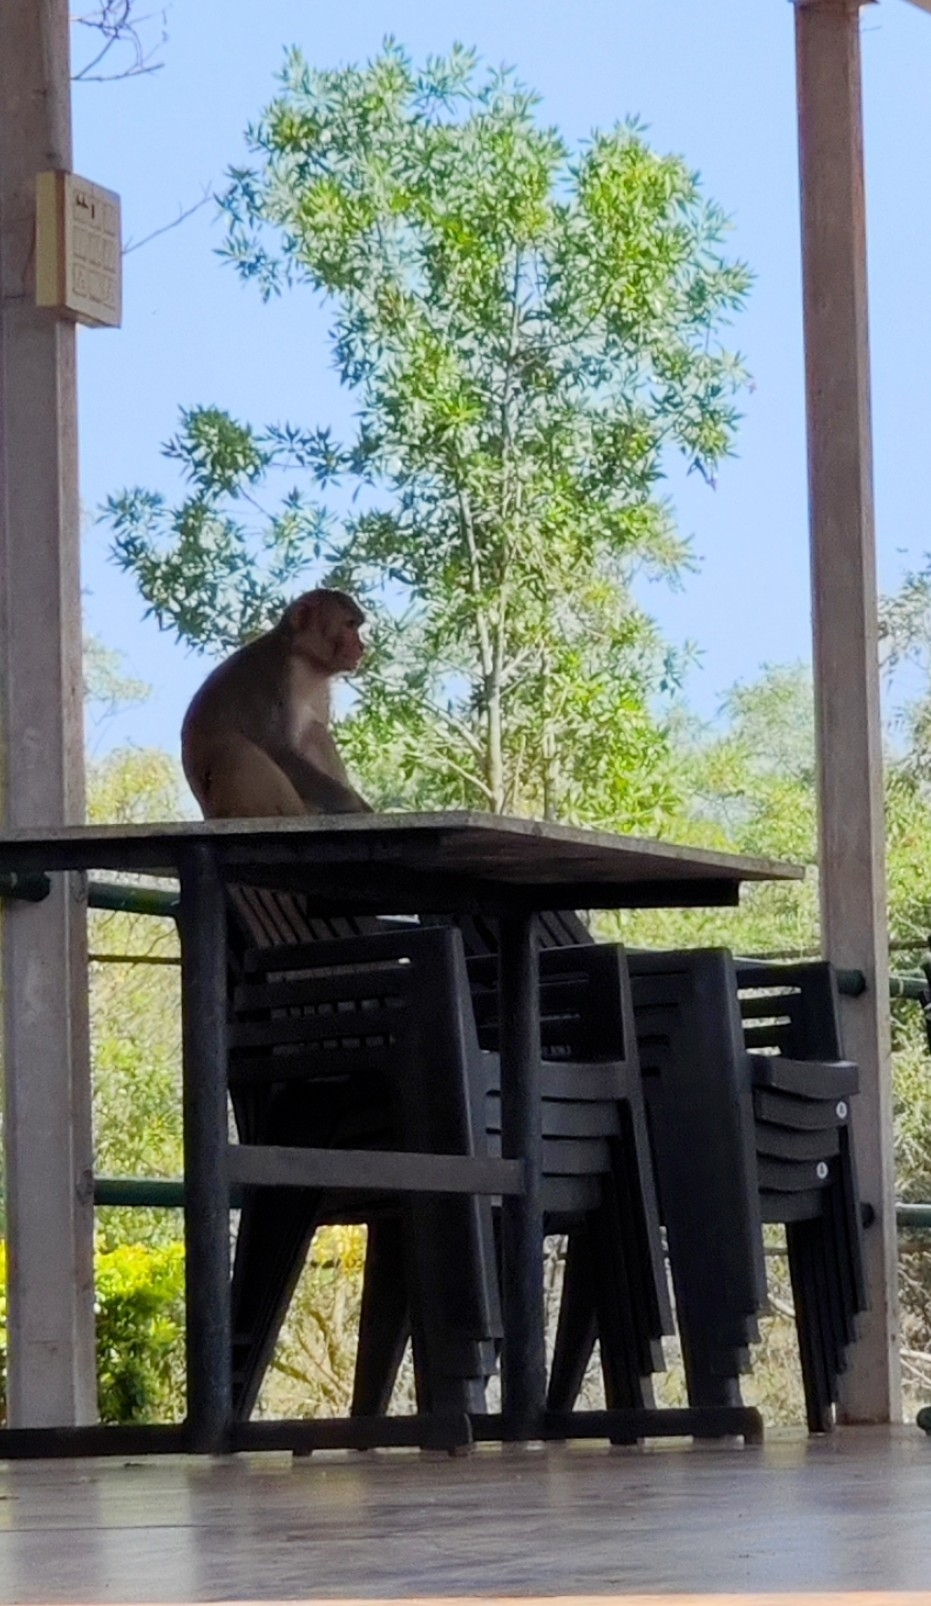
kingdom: Animalia
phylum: Chordata
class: Mammalia
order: Primates
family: Cercopithecidae
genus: Macaca
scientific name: Macaca mulatta
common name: Rhesus monkey
